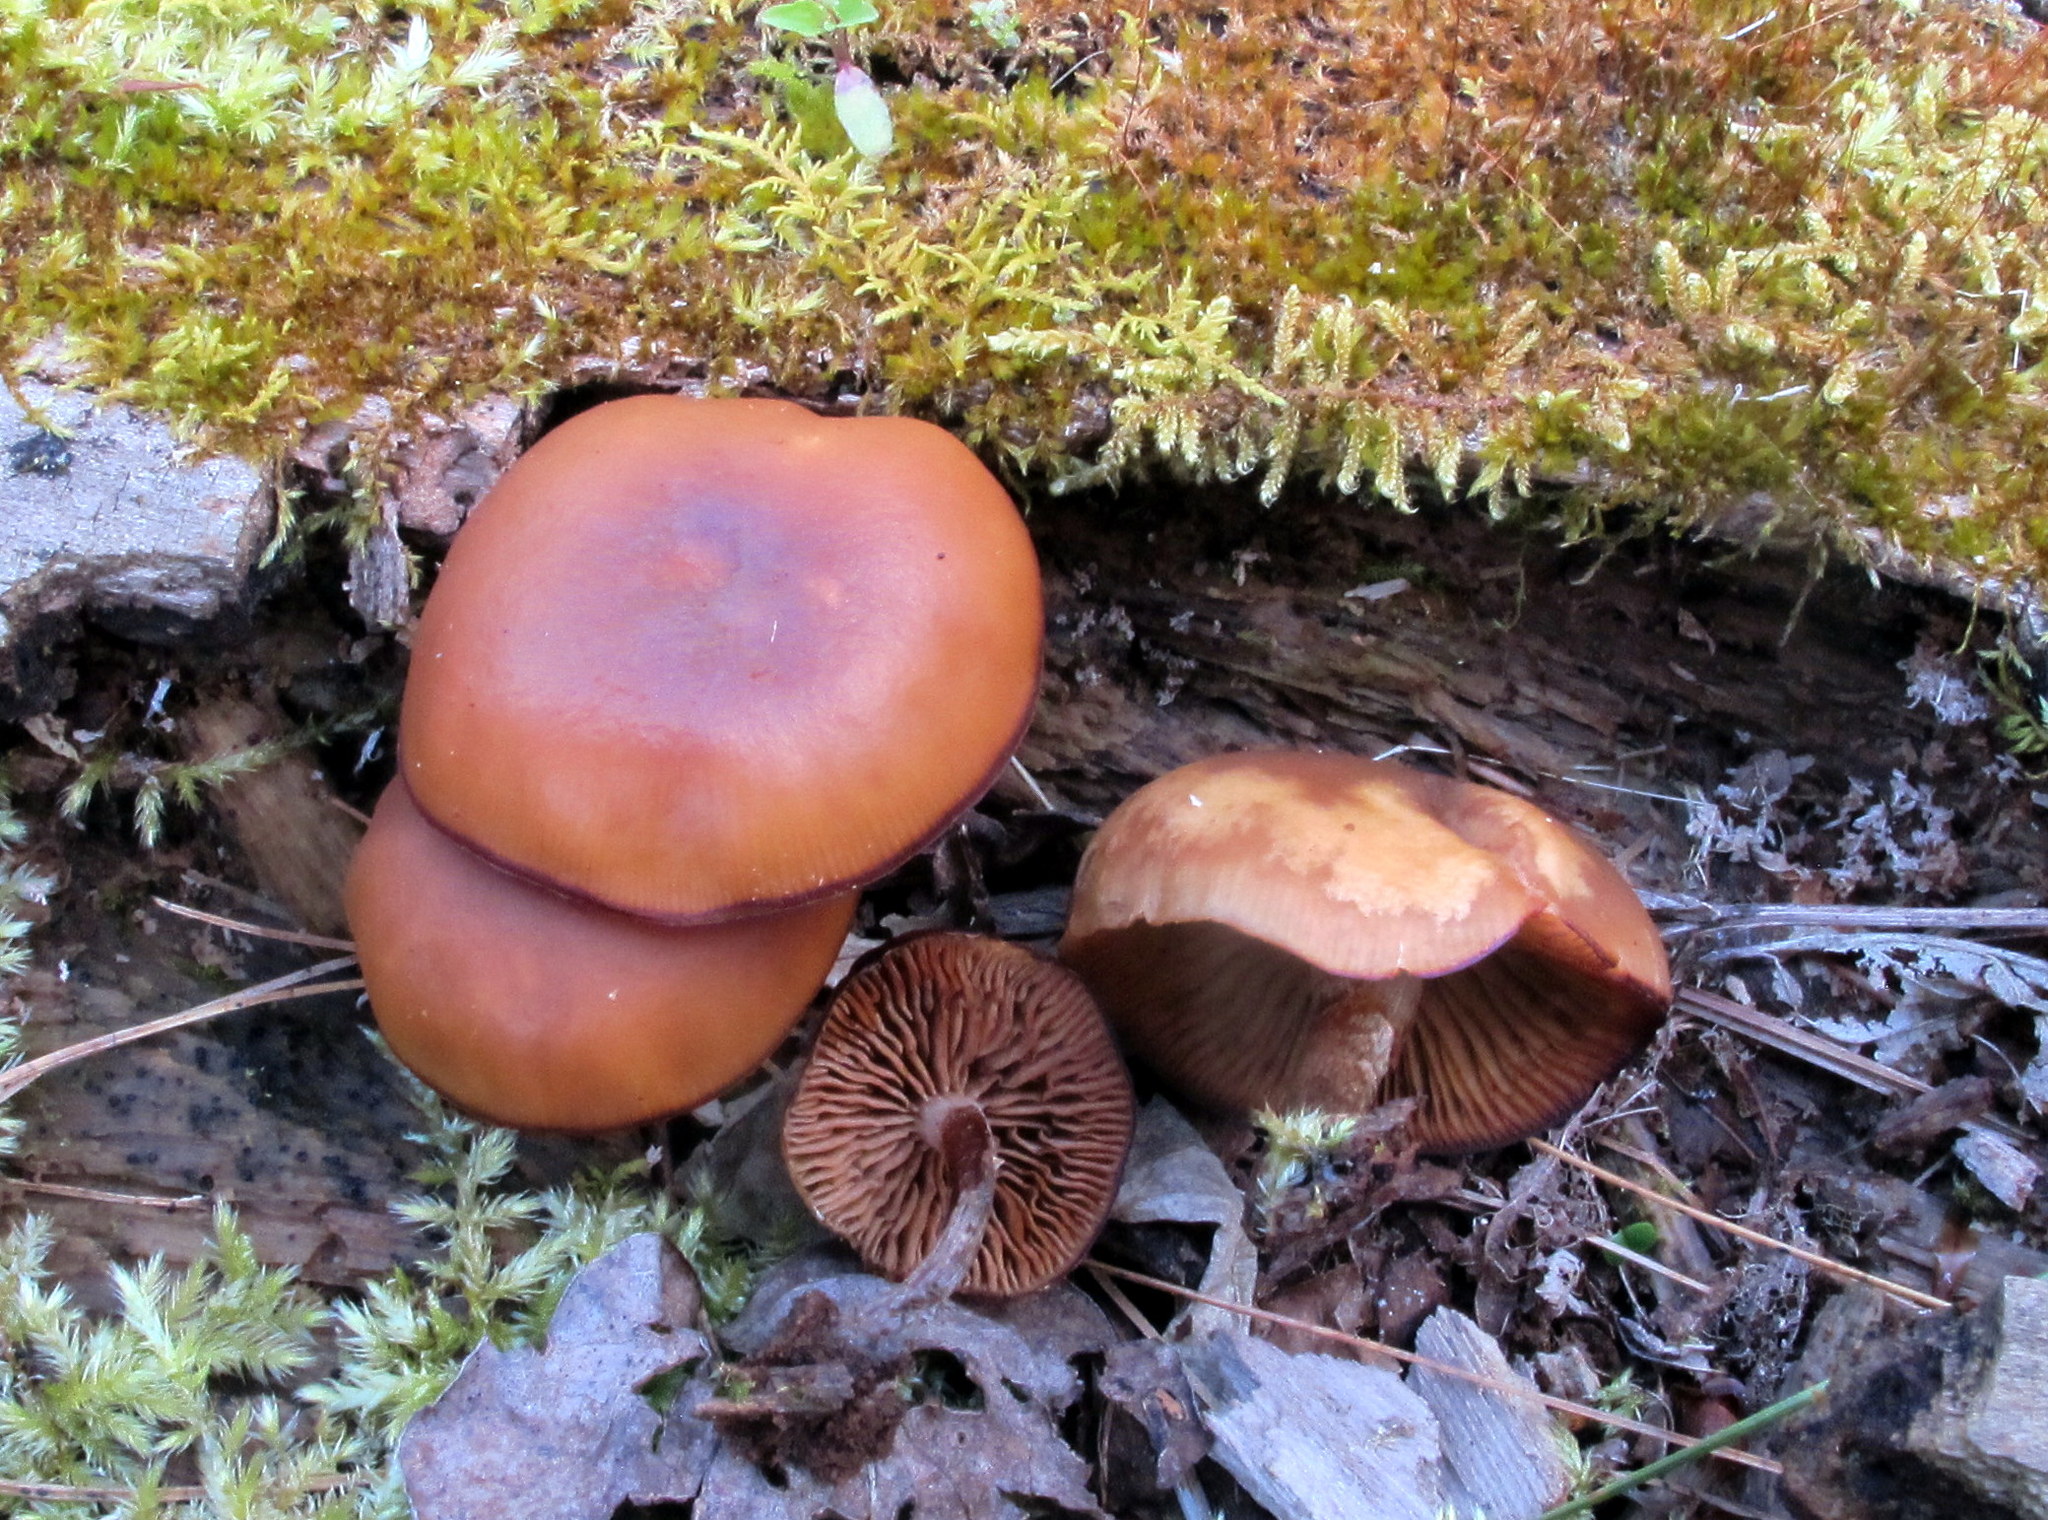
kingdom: Fungi
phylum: Basidiomycota
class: Agaricomycetes
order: Agaricales
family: Hymenogastraceae
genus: Galerina
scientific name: Galerina marginata
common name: Funeral bell
